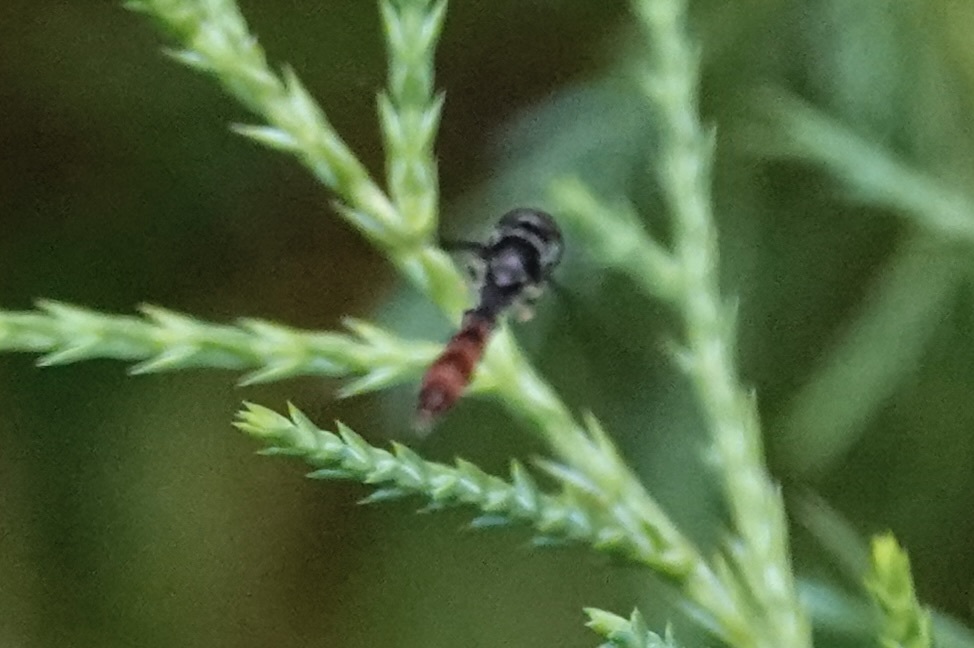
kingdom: Animalia
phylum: Arthropoda
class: Insecta
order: Diptera
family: Syrphidae
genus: Ocyptamus
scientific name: Ocyptamus fuscipennis
